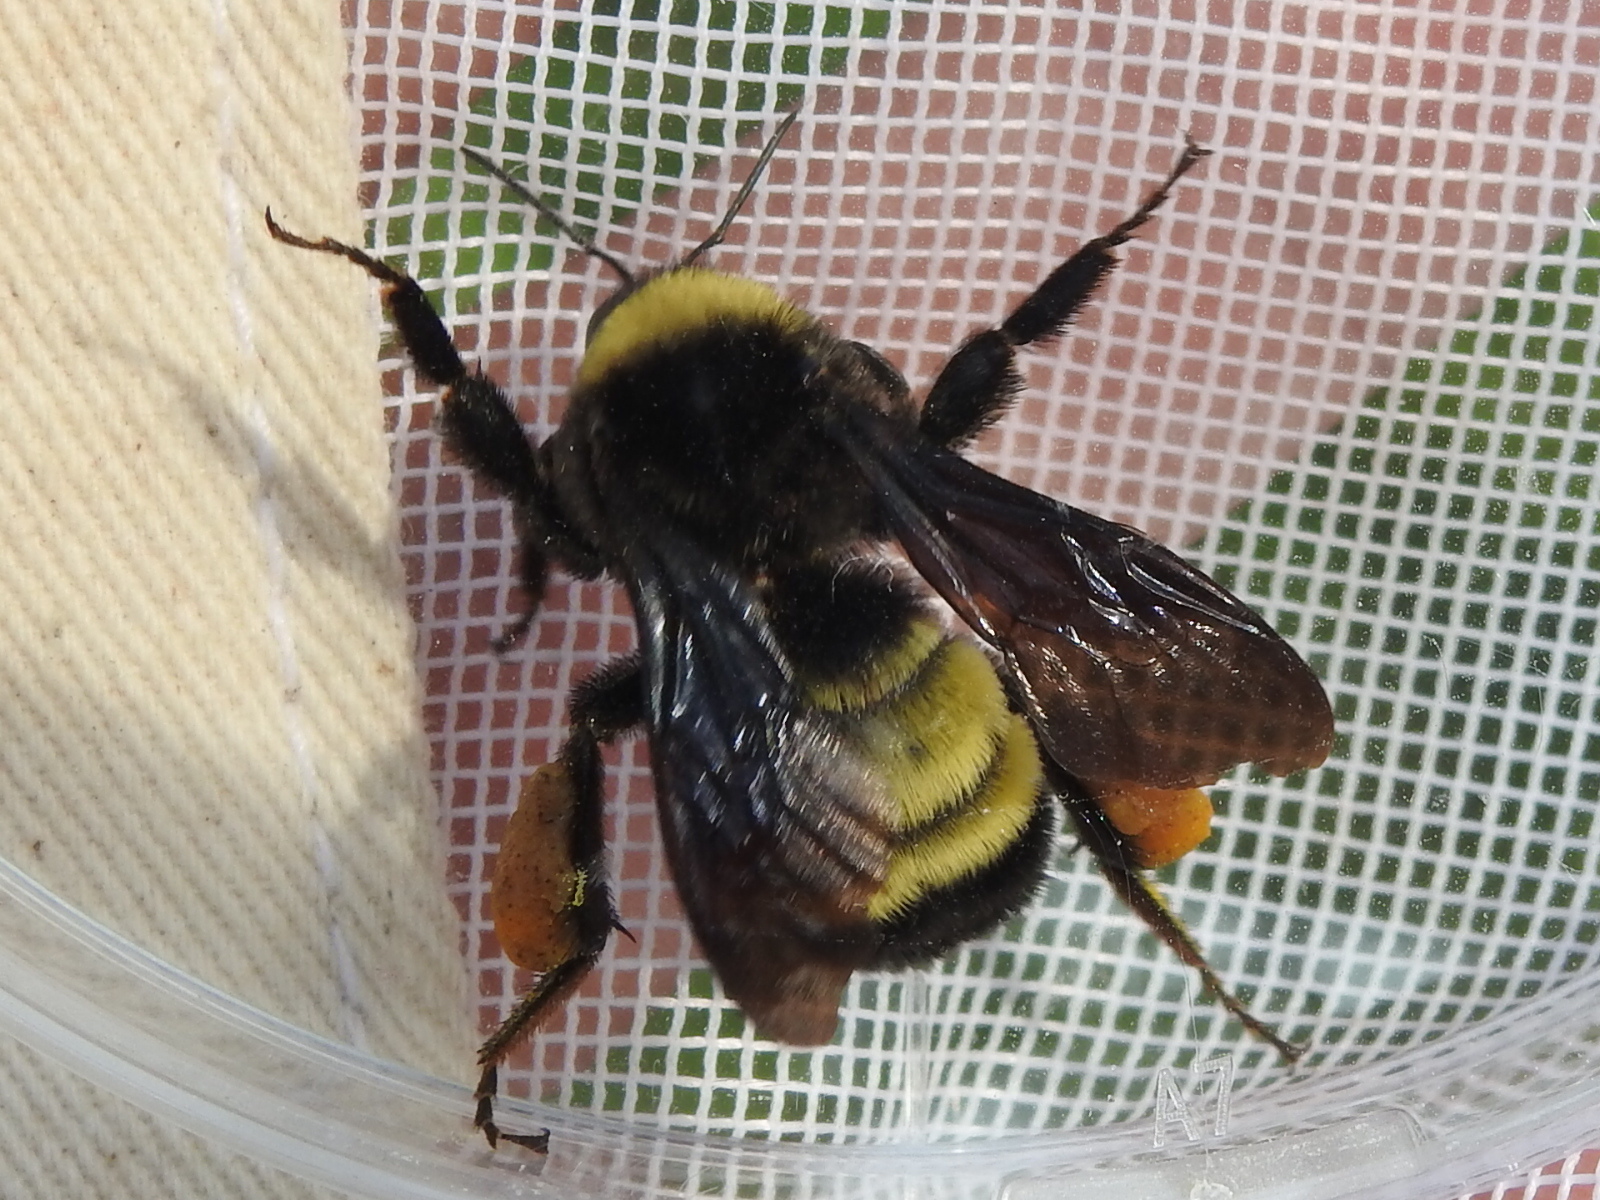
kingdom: Animalia
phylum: Arthropoda
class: Insecta
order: Hymenoptera
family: Apidae
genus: Bombus
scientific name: Bombus pensylvanicus
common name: Bumble bee
